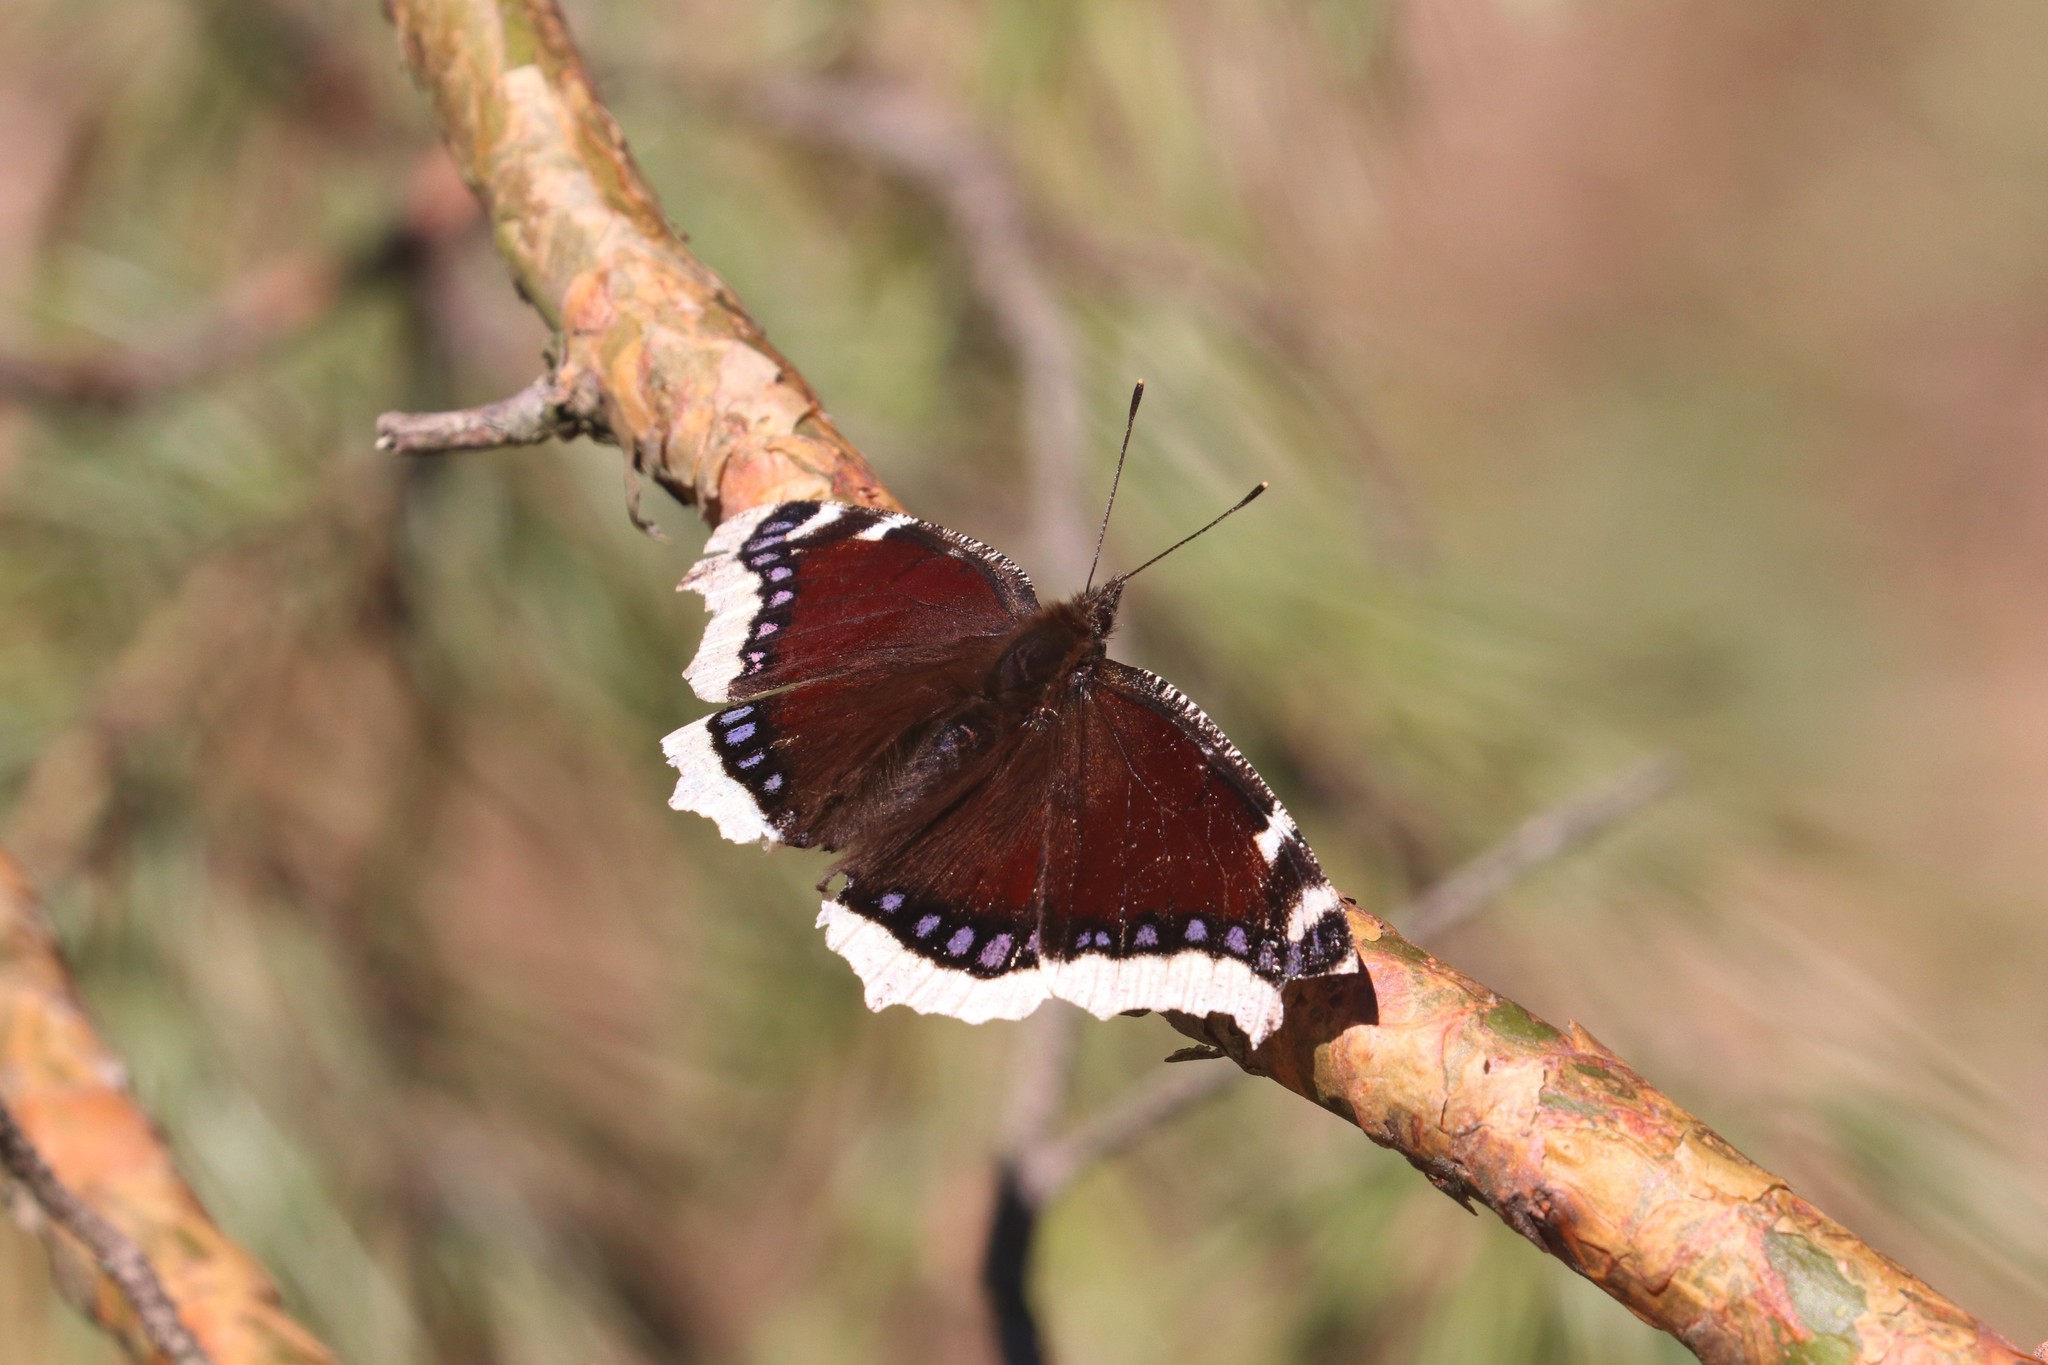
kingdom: Animalia
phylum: Arthropoda
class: Insecta
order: Lepidoptera
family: Nymphalidae
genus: Nymphalis
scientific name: Nymphalis antiopa
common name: Camberwell beauty
